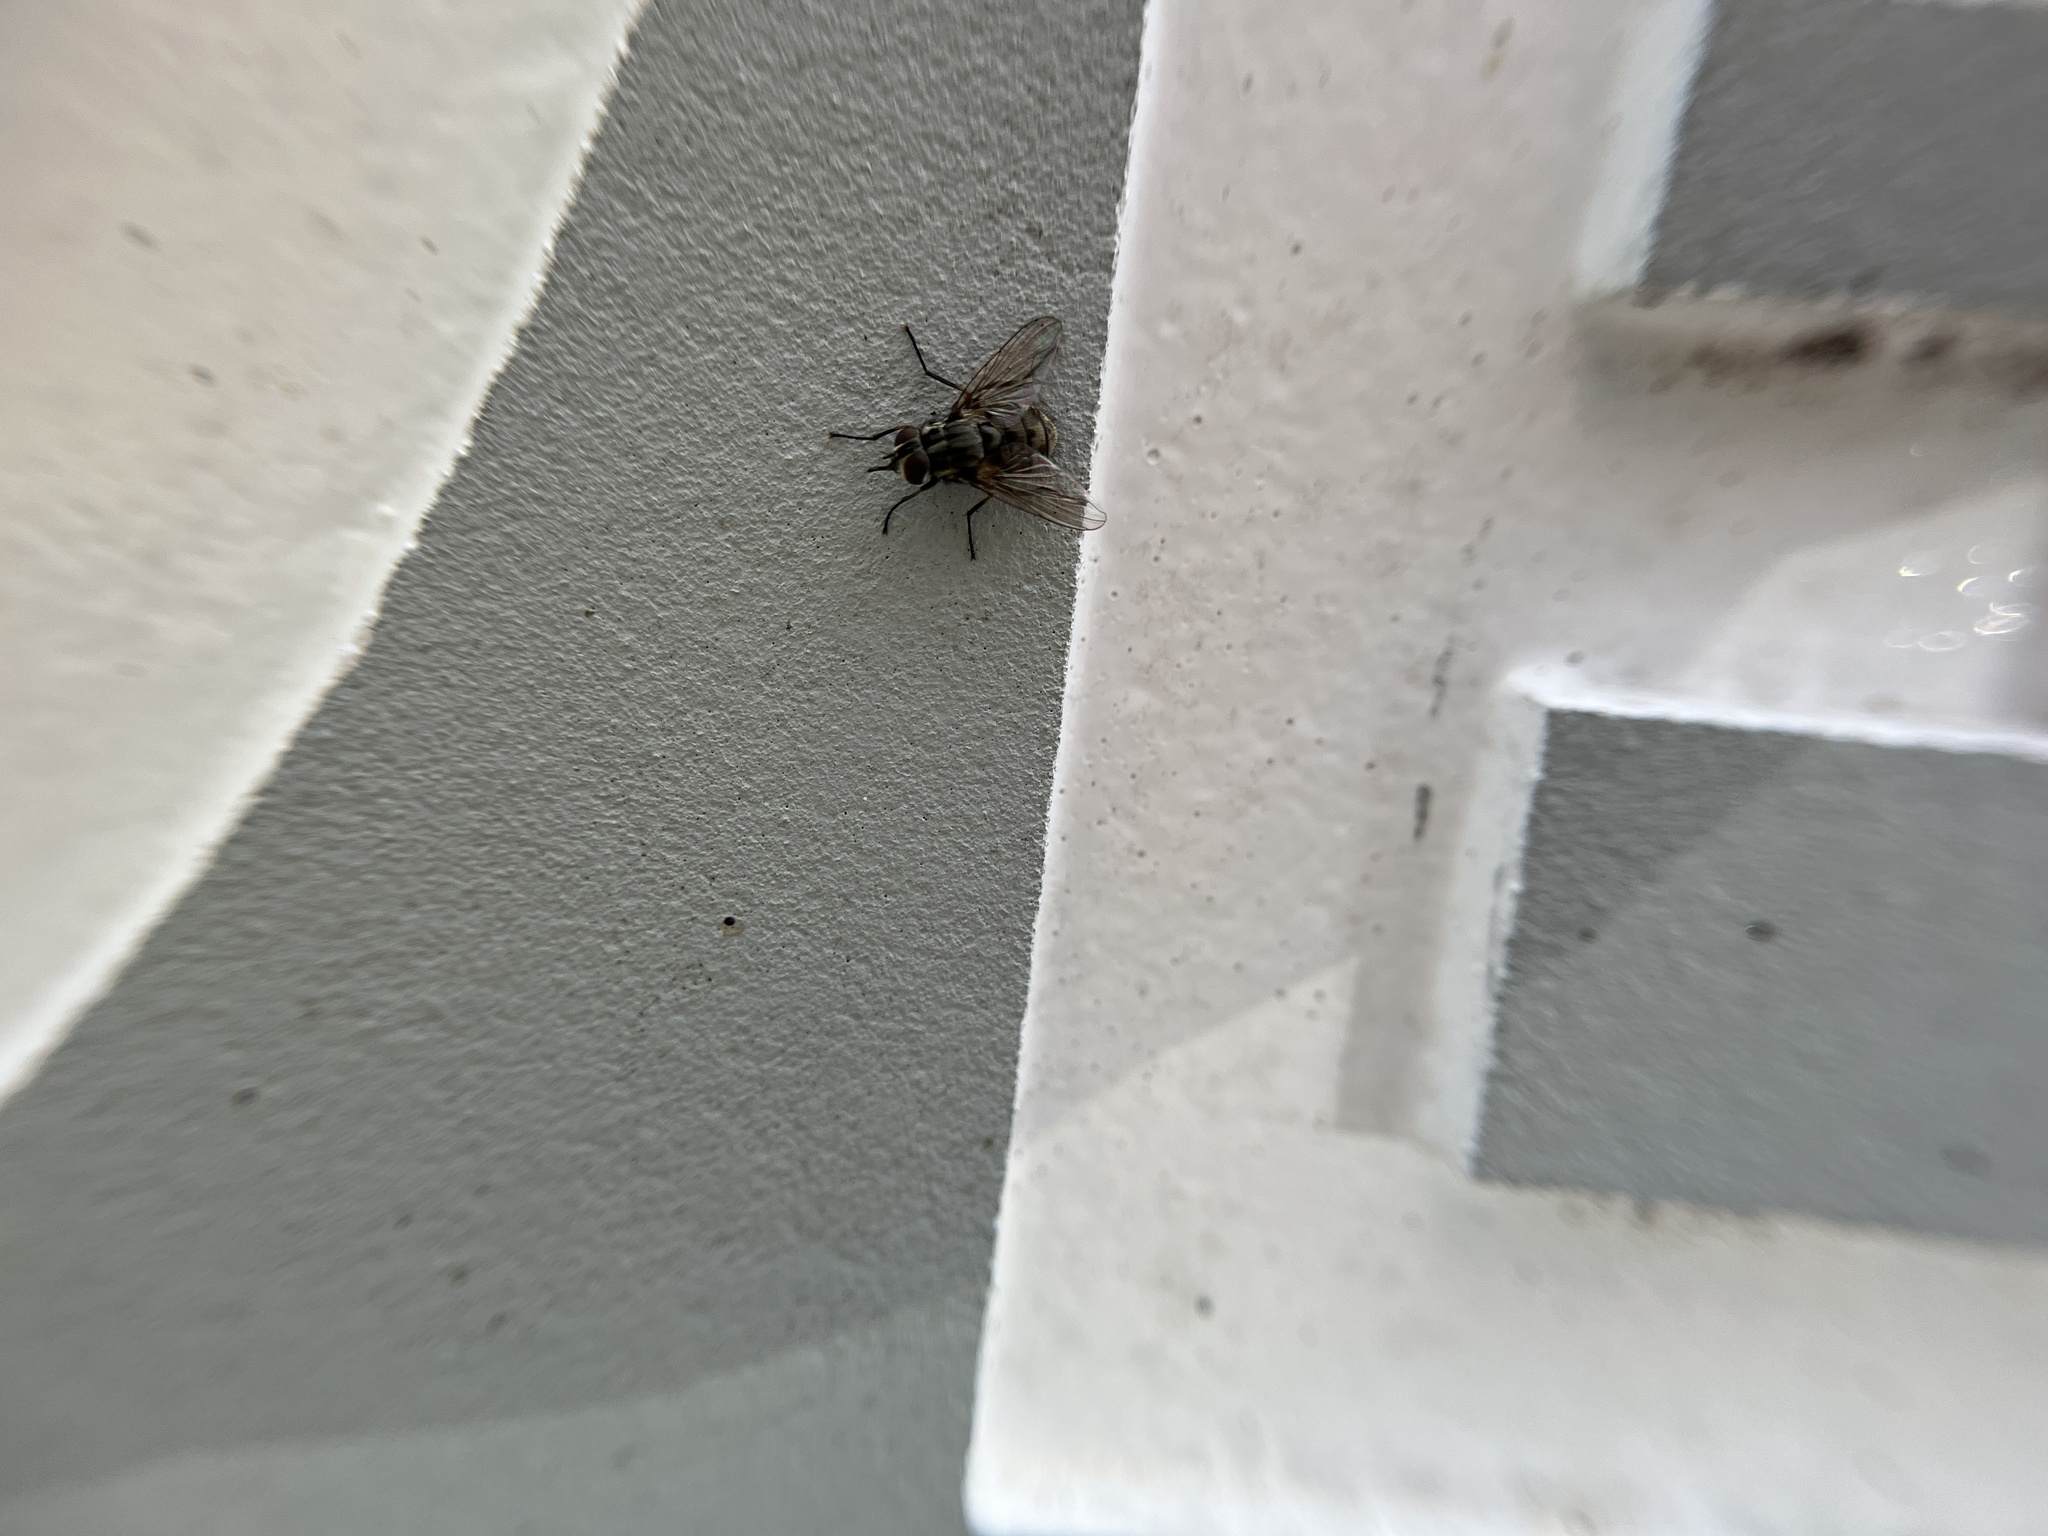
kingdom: Animalia
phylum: Arthropoda
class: Insecta
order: Diptera
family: Muscidae
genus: Stomoxys
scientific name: Stomoxys calcitrans
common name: Stable fly
